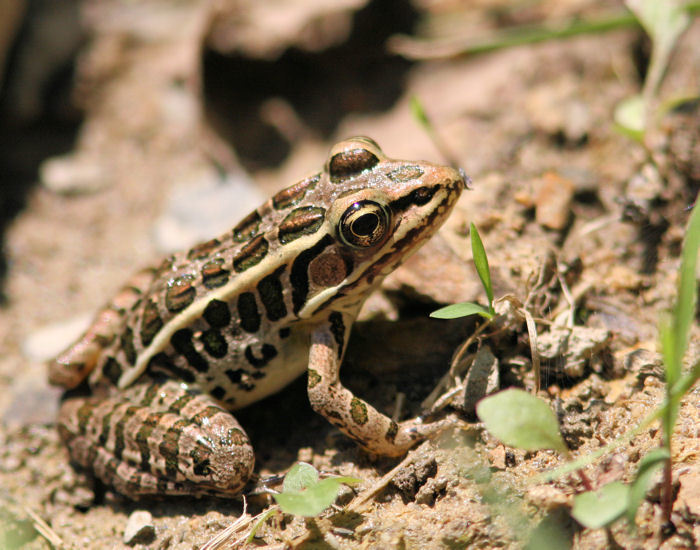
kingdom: Animalia
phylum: Chordata
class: Amphibia
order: Anura
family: Ranidae
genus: Lithobates
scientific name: Lithobates palustris
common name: Pickerel frog
